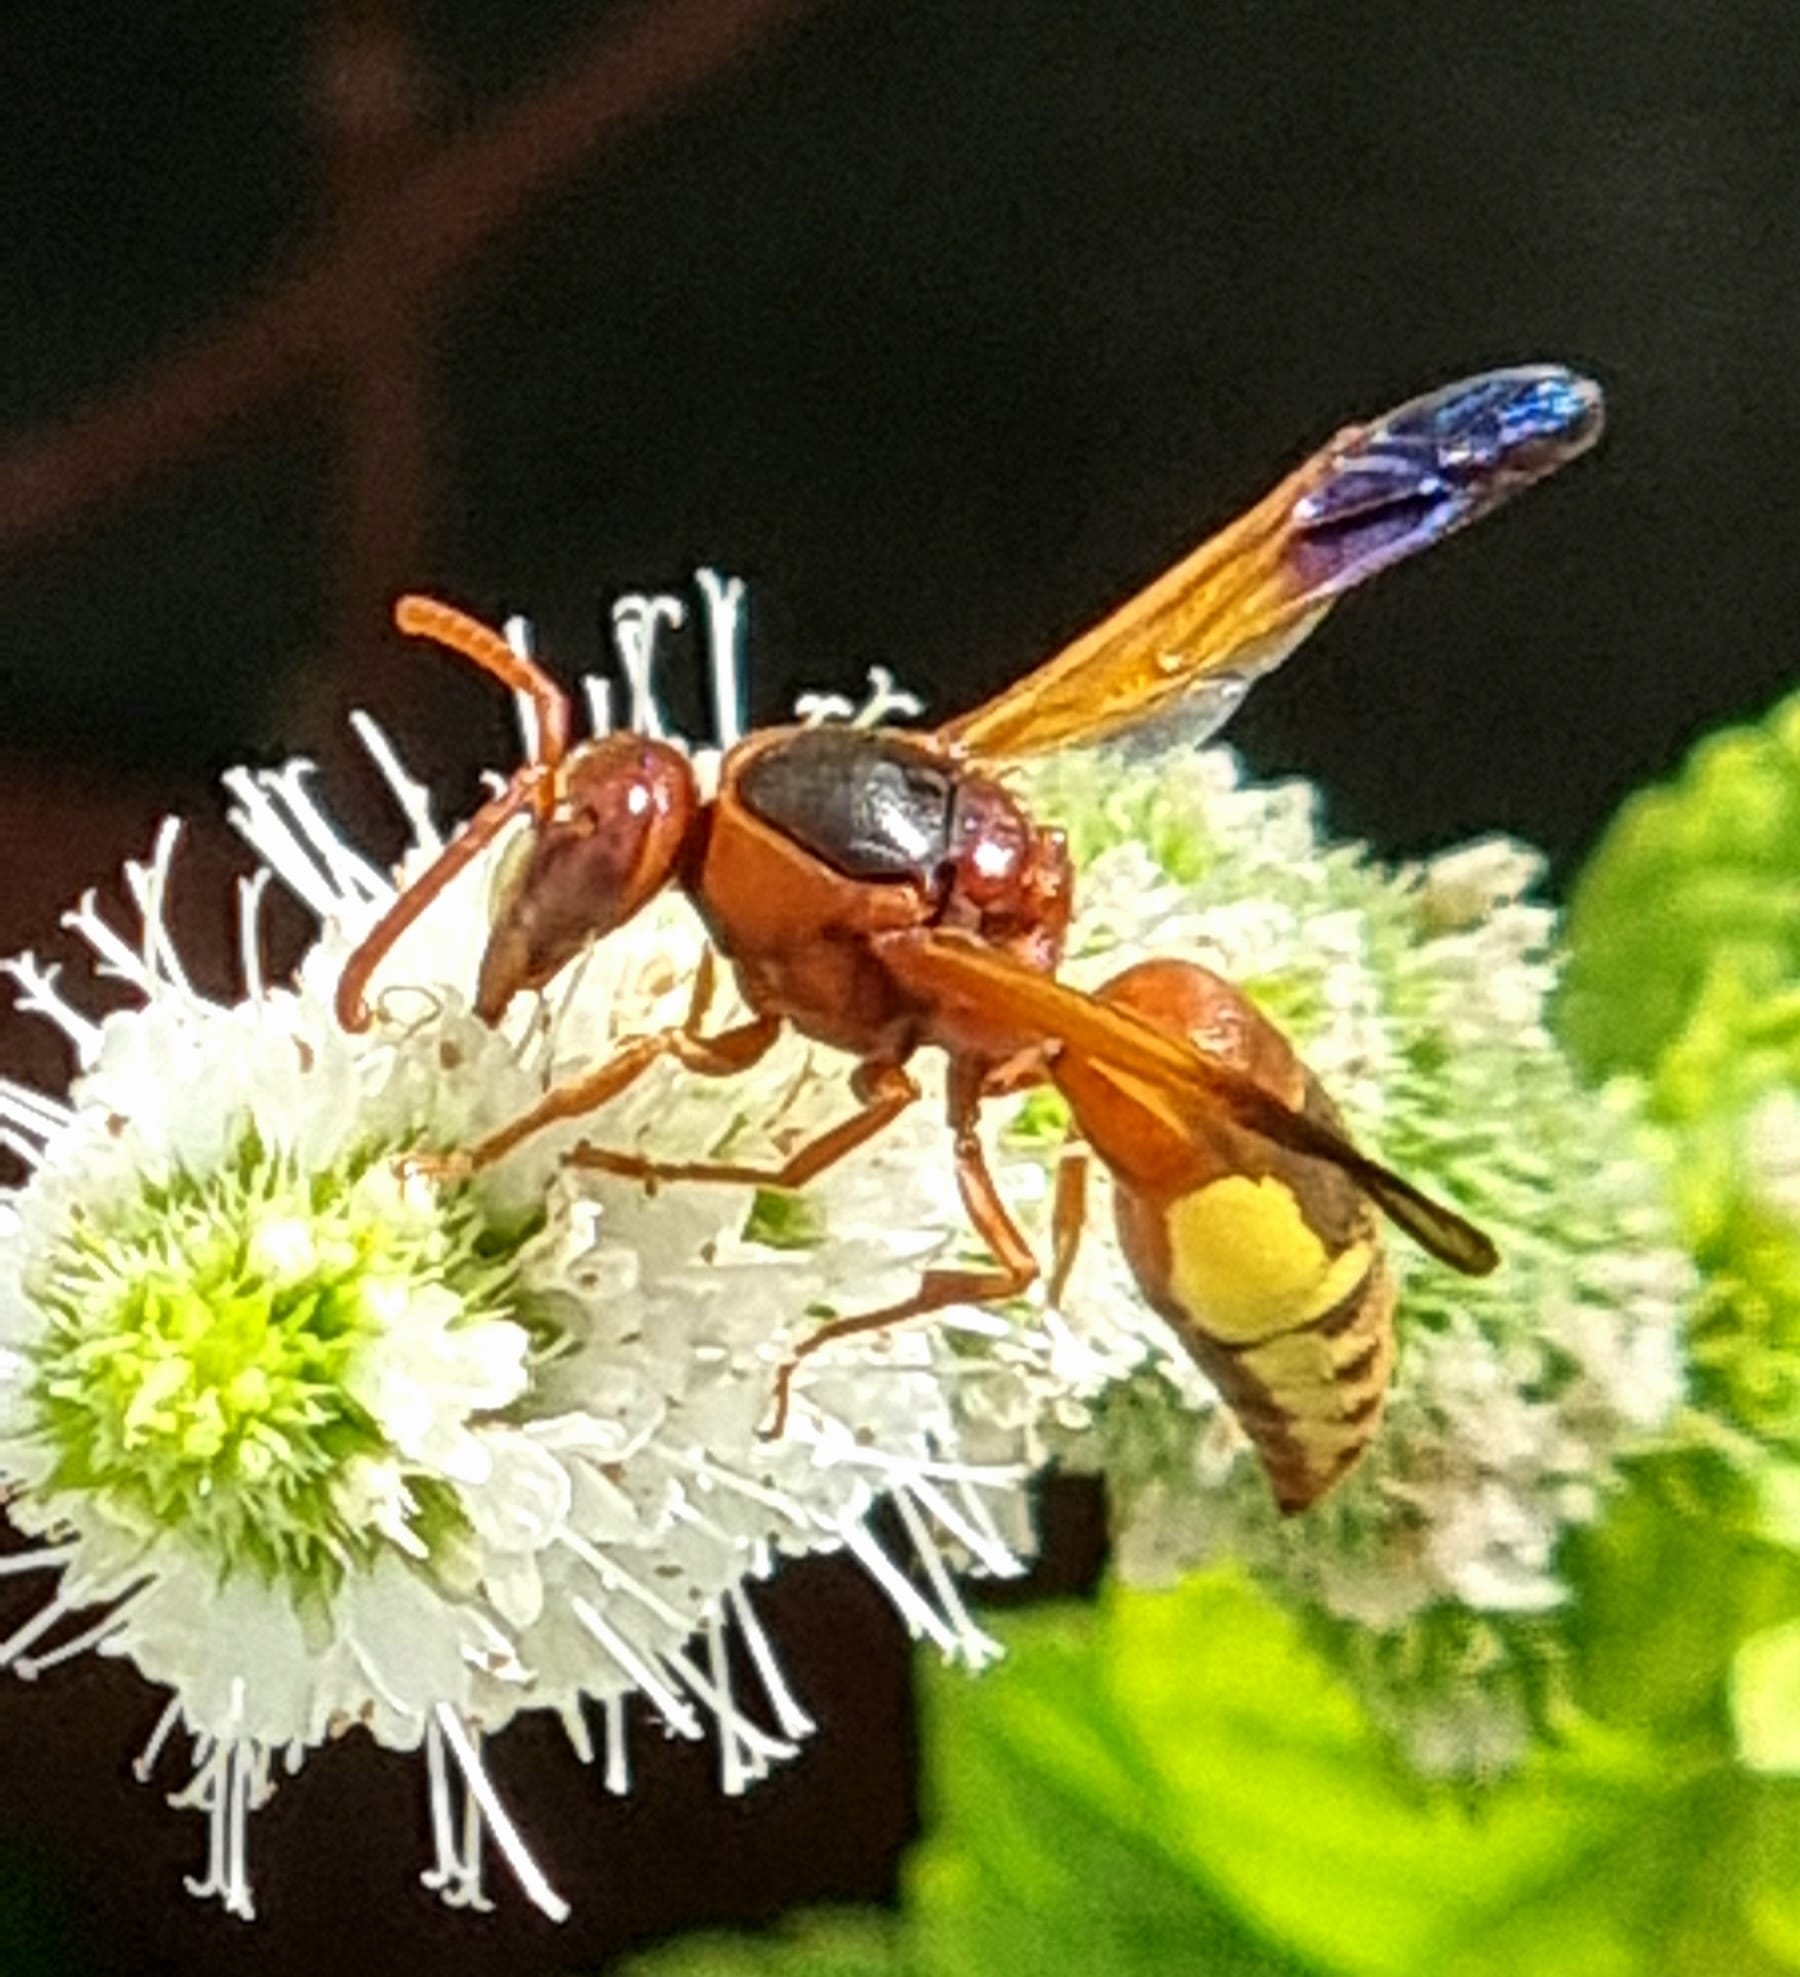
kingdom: Animalia
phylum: Arthropoda
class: Insecta
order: Hymenoptera
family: Eumenidae
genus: Rhynchium
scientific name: Rhynchium oculatum
